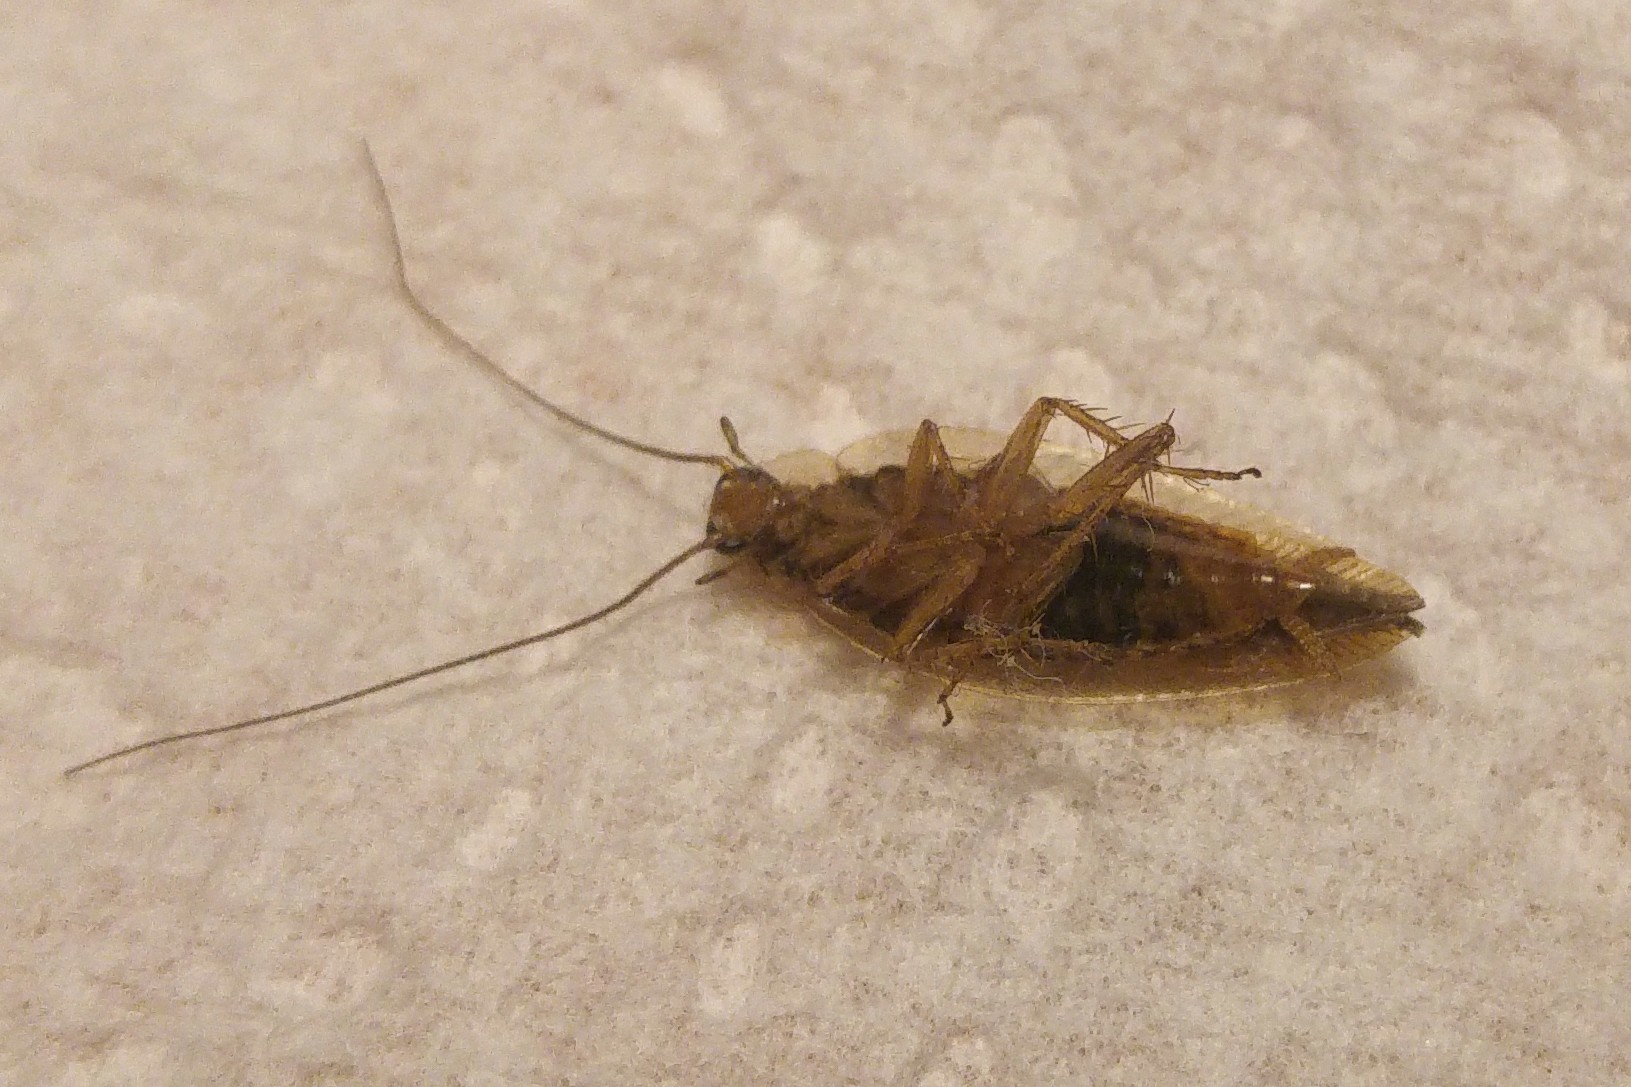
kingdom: Animalia
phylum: Arthropoda
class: Insecta
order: Blattodea
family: Ectobiidae
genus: Ectobius
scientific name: Ectobius vittiventris
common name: Garden cockroach
